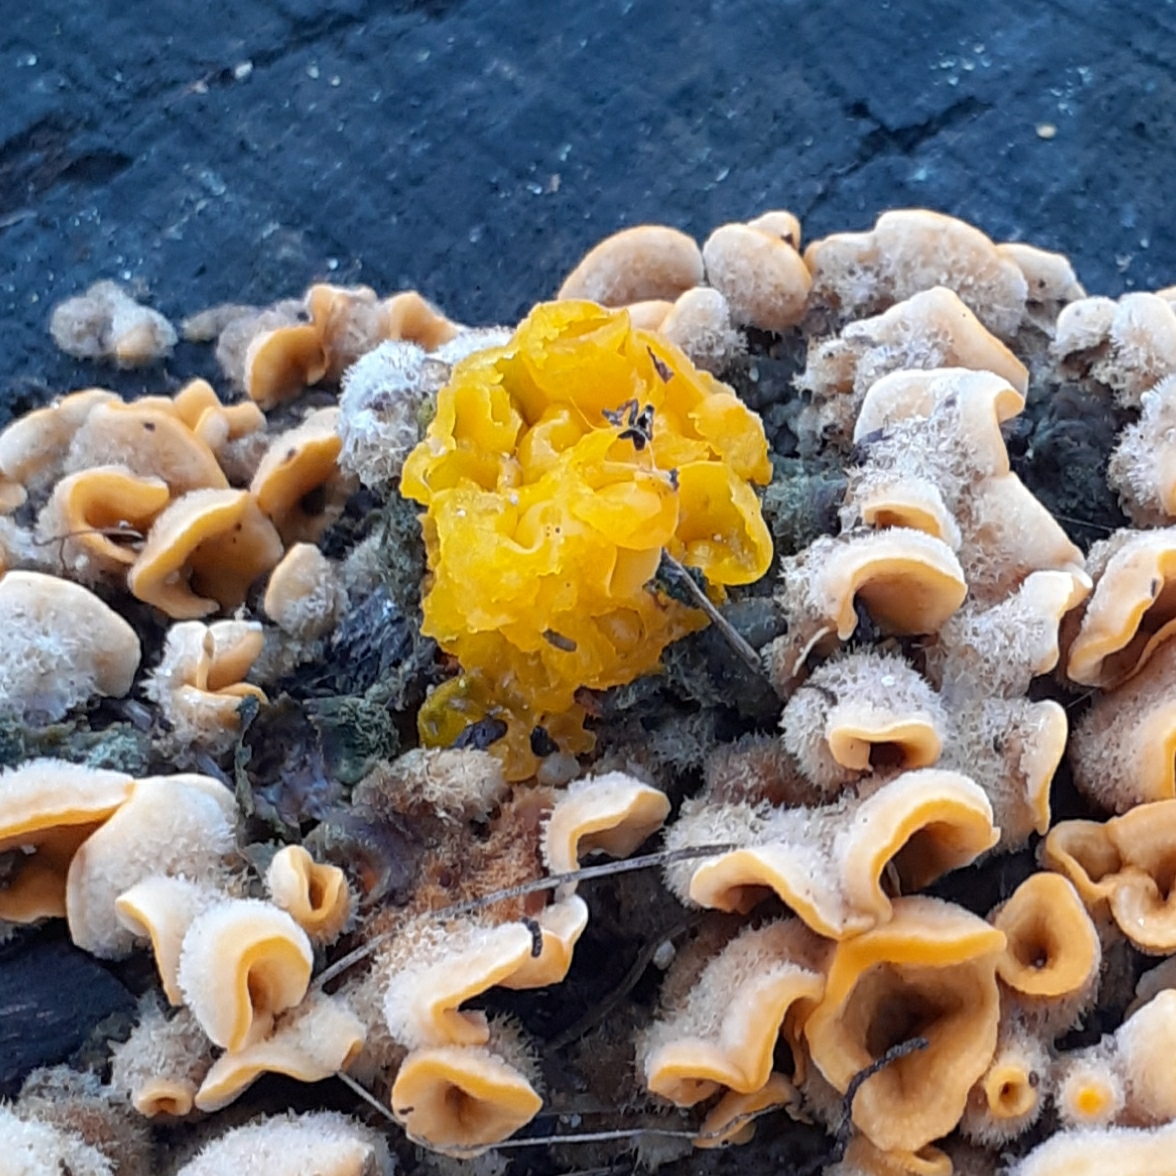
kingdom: Fungi
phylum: Basidiomycota
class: Tremellomycetes
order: Tremellales
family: Naemateliaceae
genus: Naematelia
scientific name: Naematelia aurantia
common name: Golden ear
